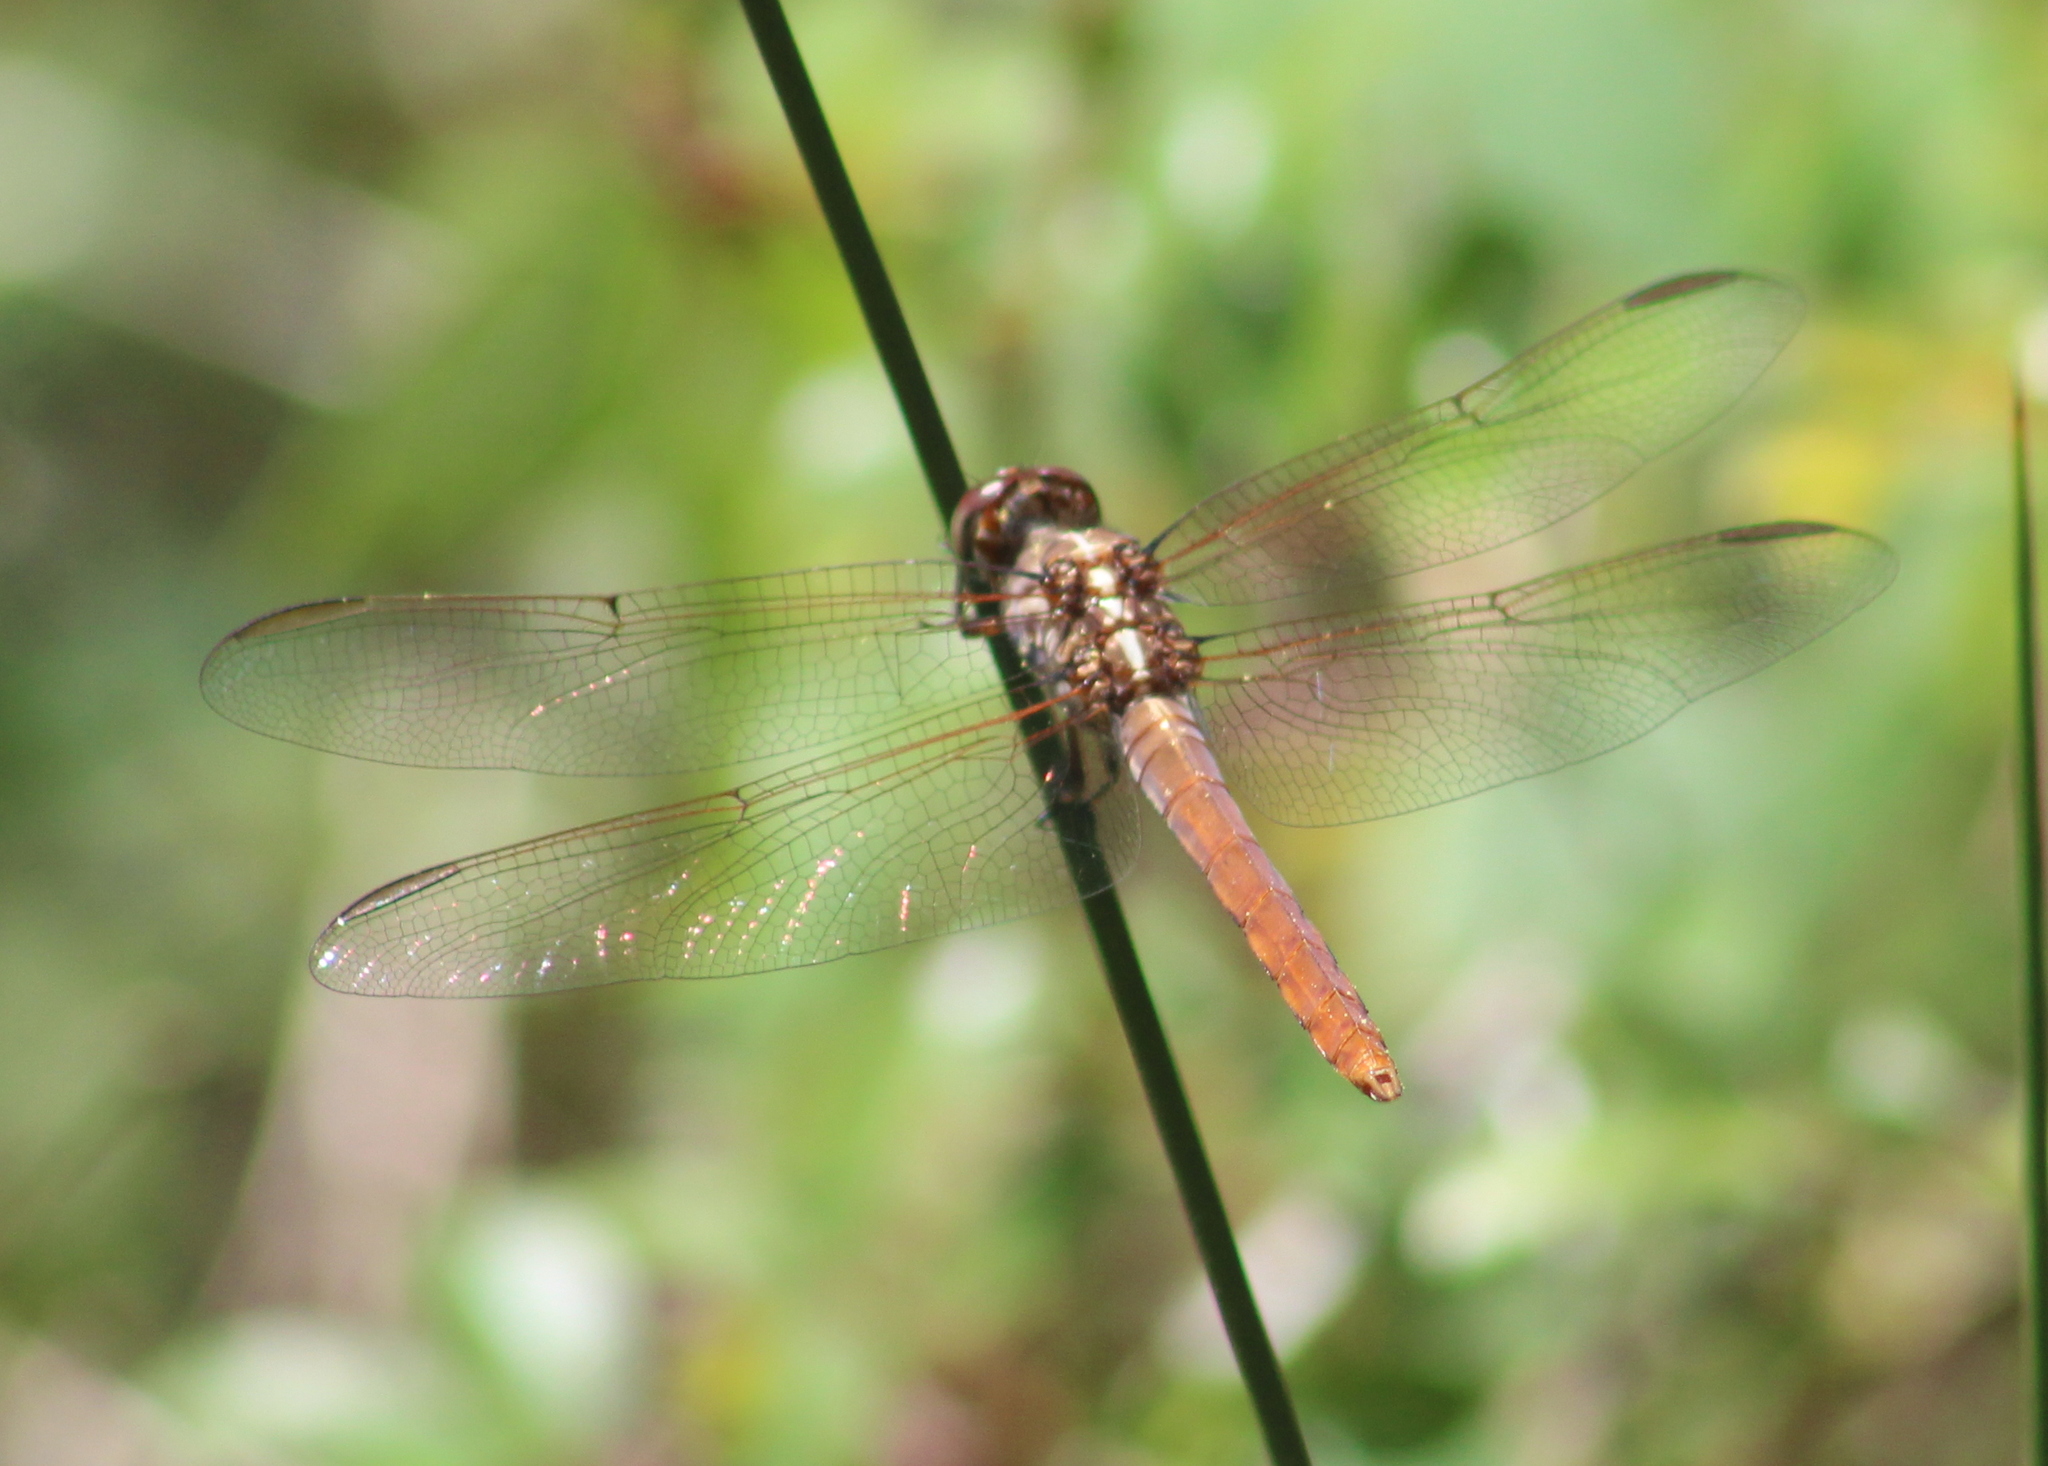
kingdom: Animalia
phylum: Arthropoda
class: Insecta
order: Odonata
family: Libellulidae
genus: Orthemis
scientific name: Orthemis ferruginea
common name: Roseate skimmer
